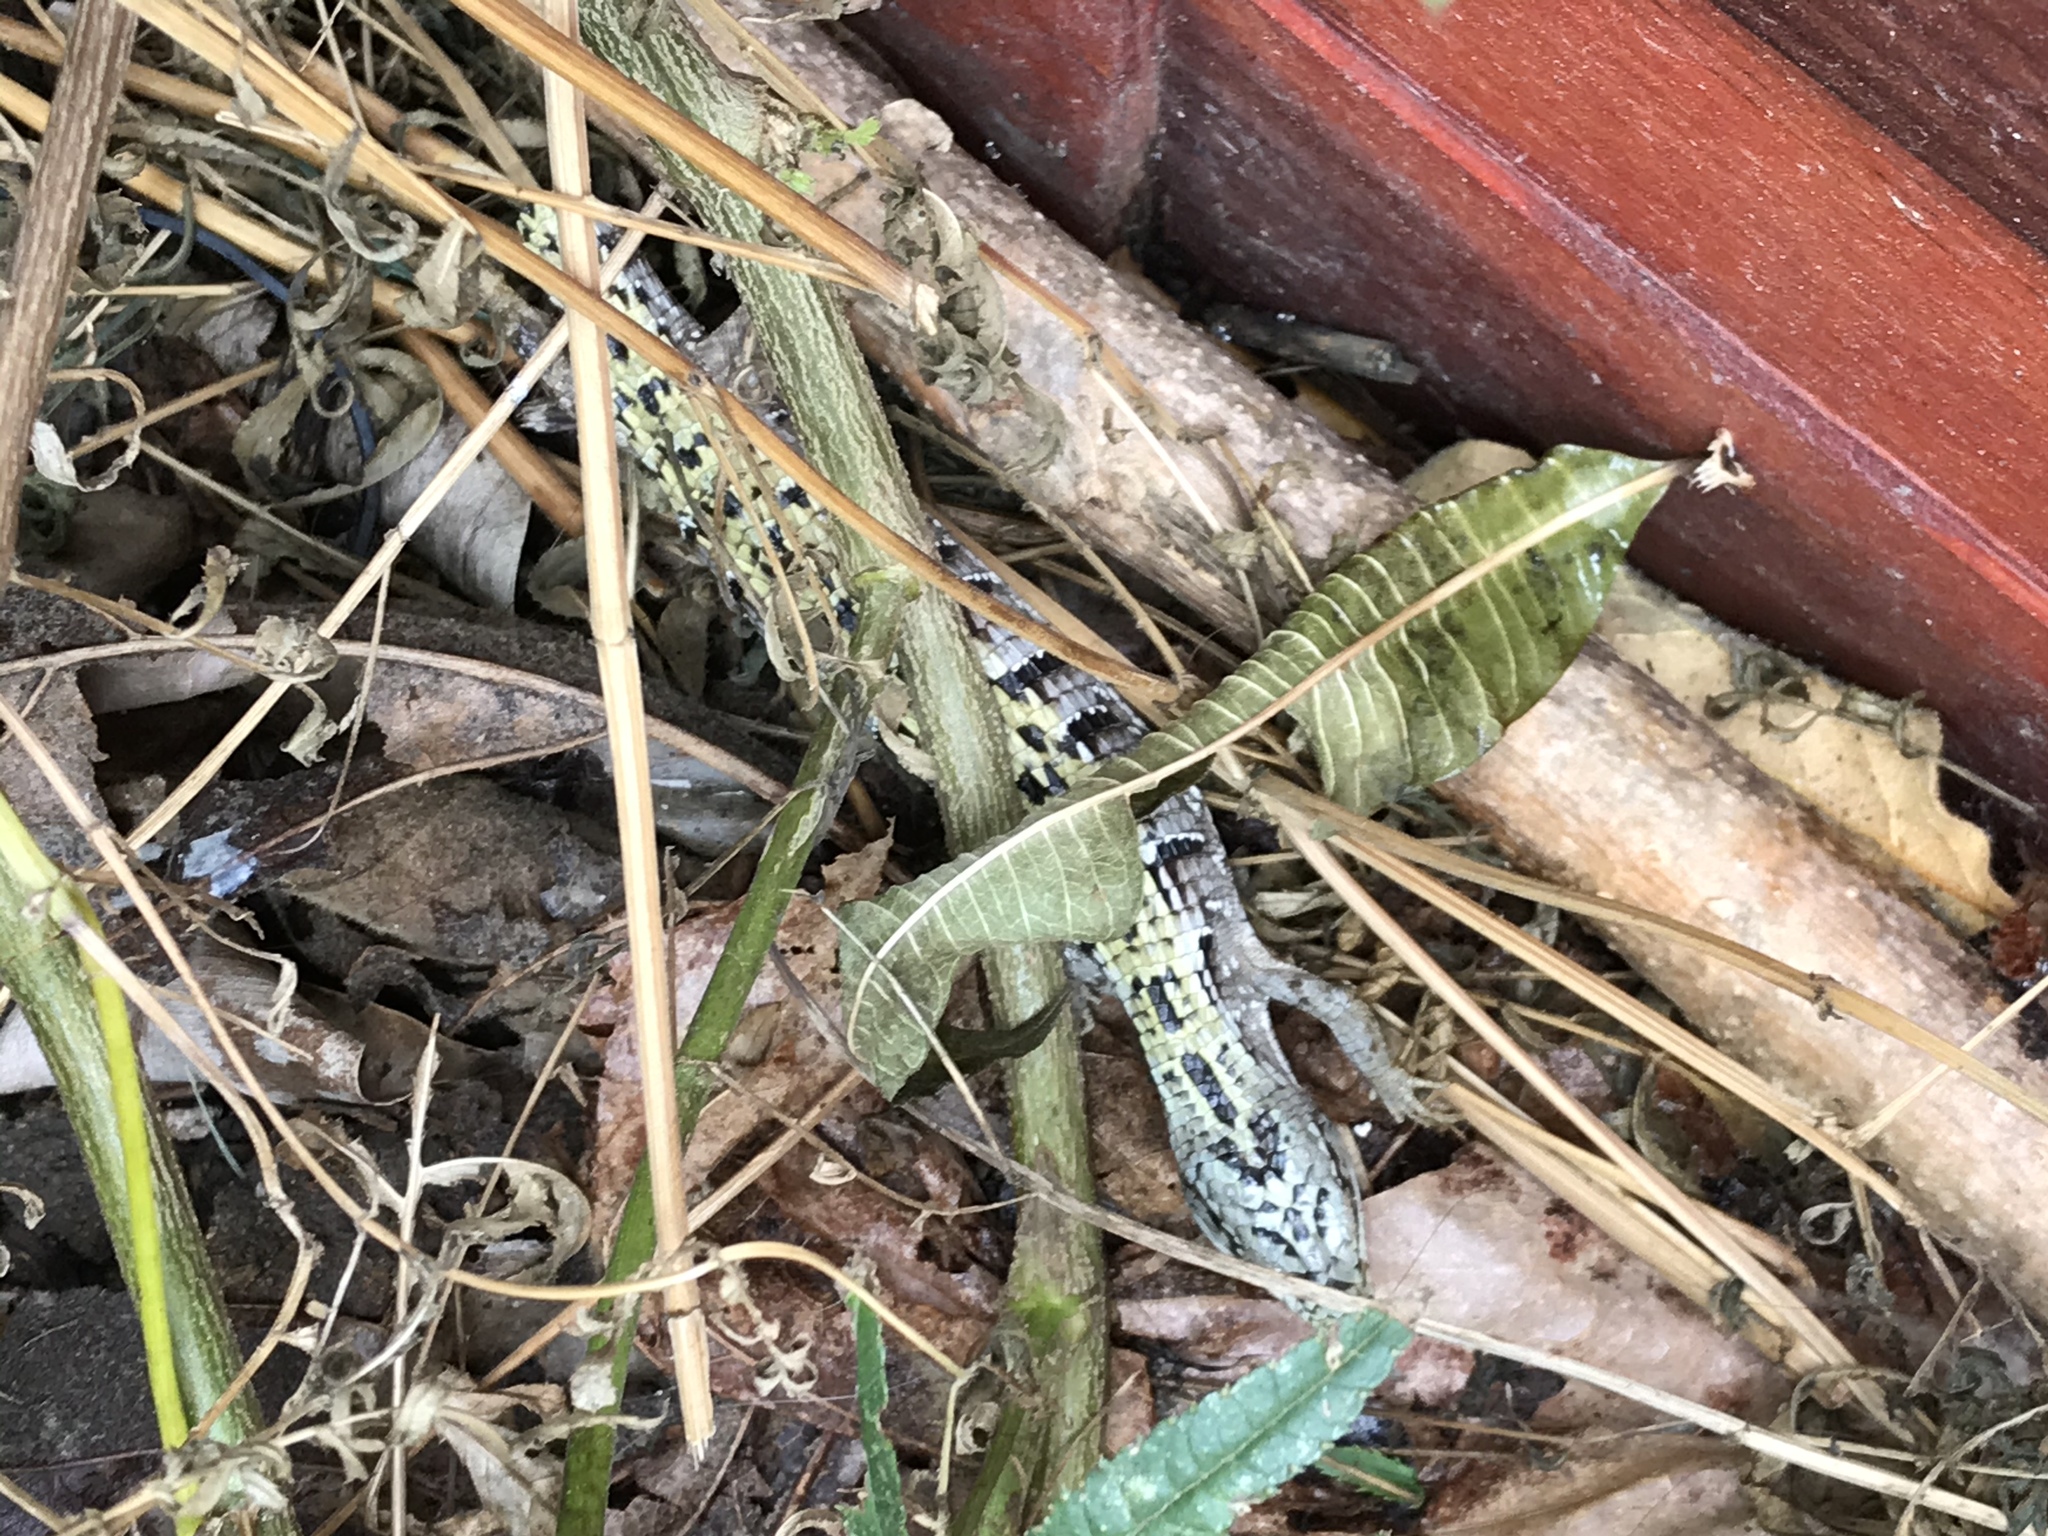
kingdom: Animalia
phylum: Chordata
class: Squamata
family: Anguidae
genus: Elgaria
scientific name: Elgaria multicarinata
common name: Southern alligator lizard
